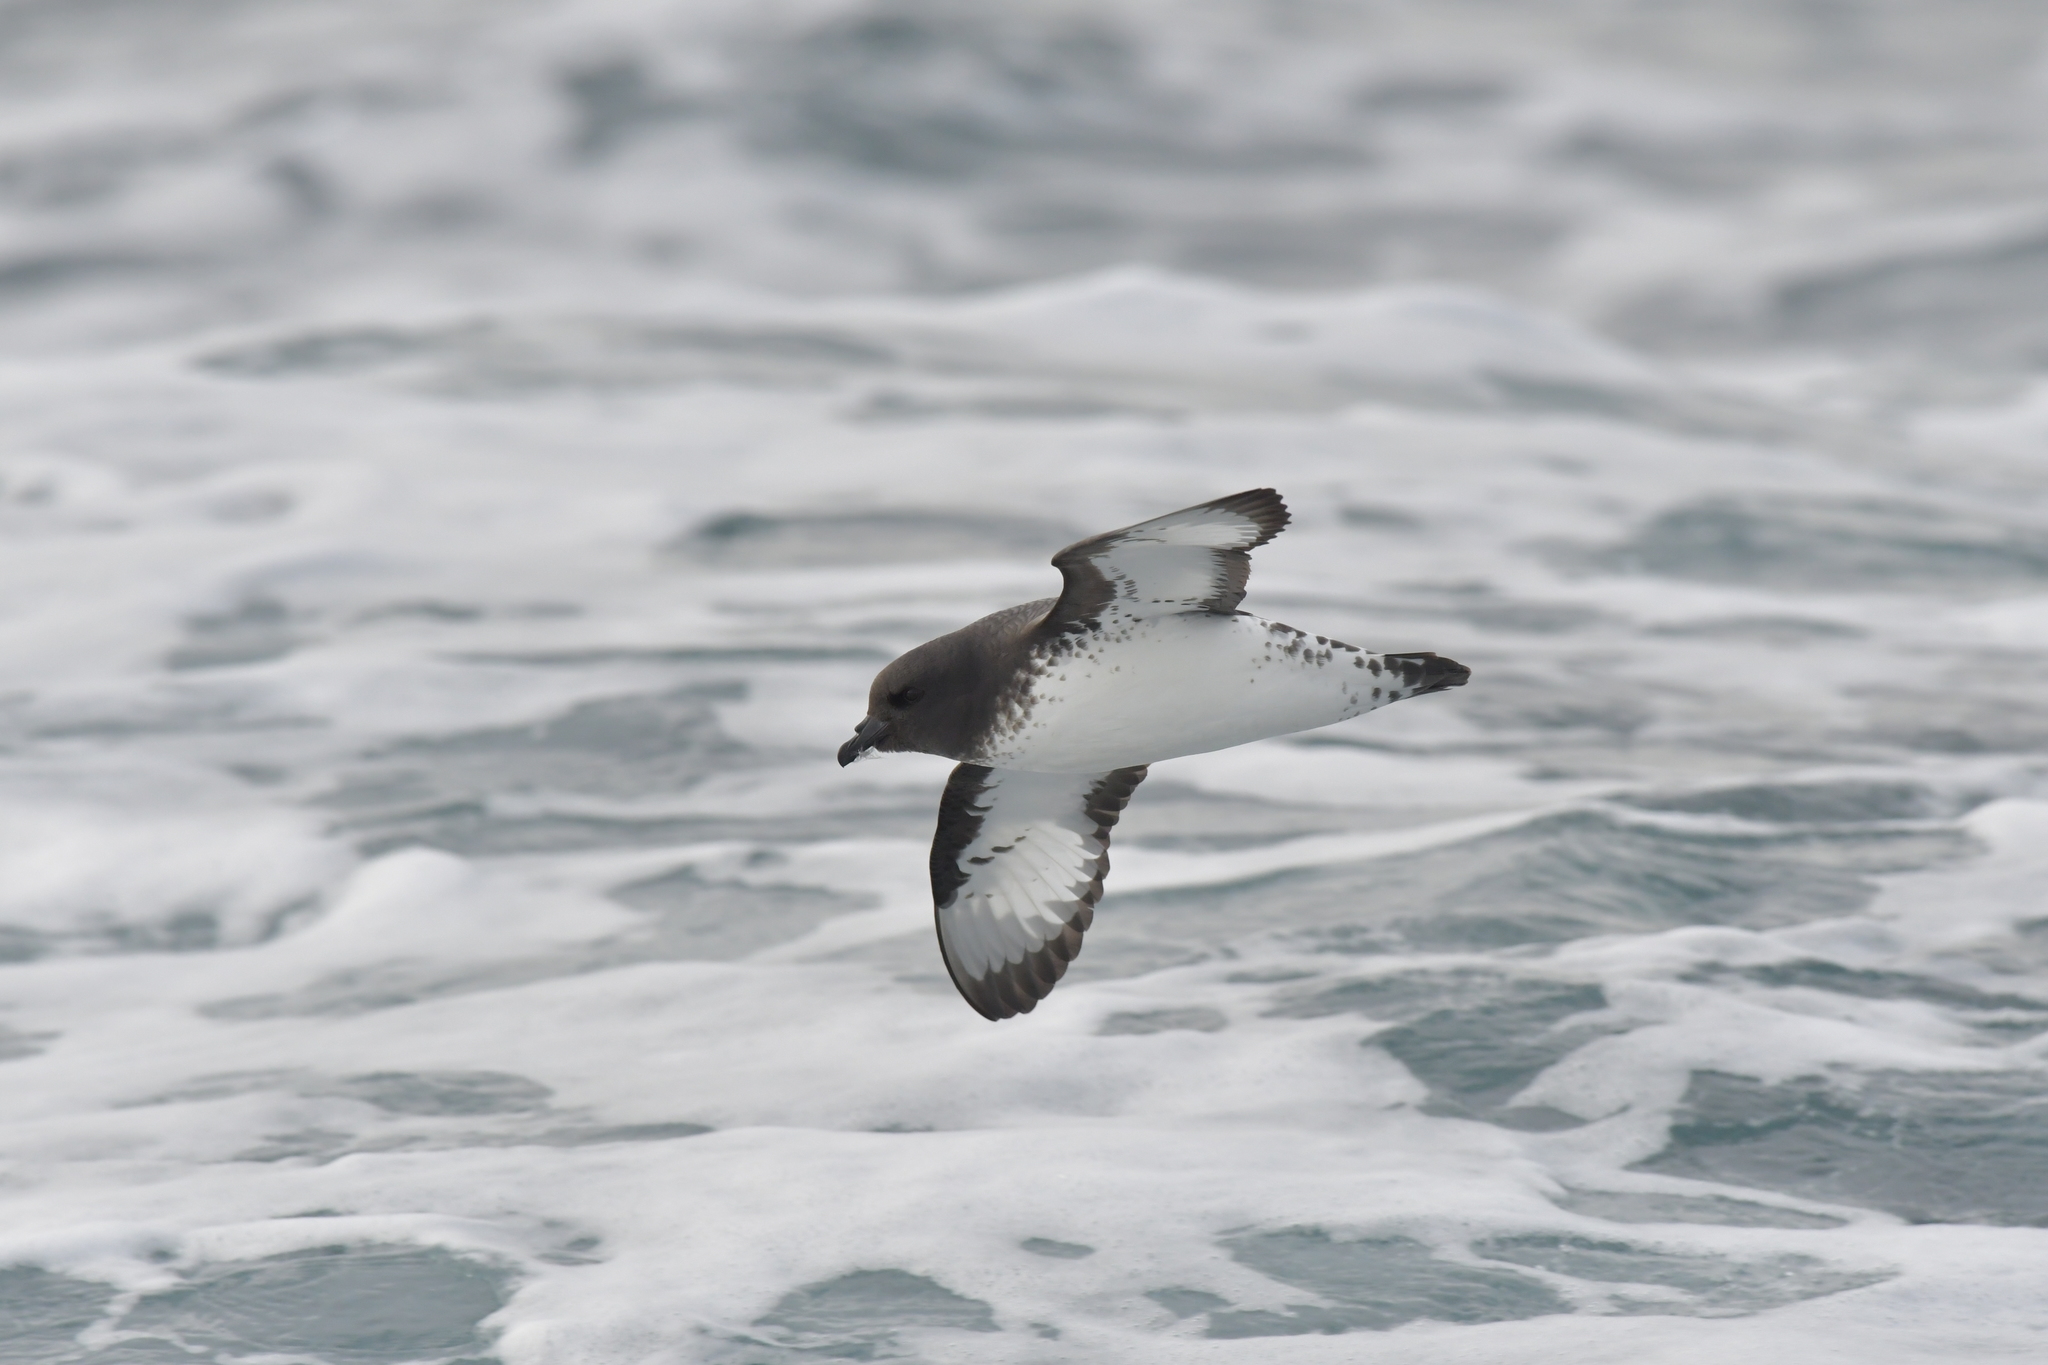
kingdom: Animalia
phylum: Chordata
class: Aves
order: Procellariiformes
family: Procellariidae
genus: Daption
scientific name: Daption capense
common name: Cape petrel
